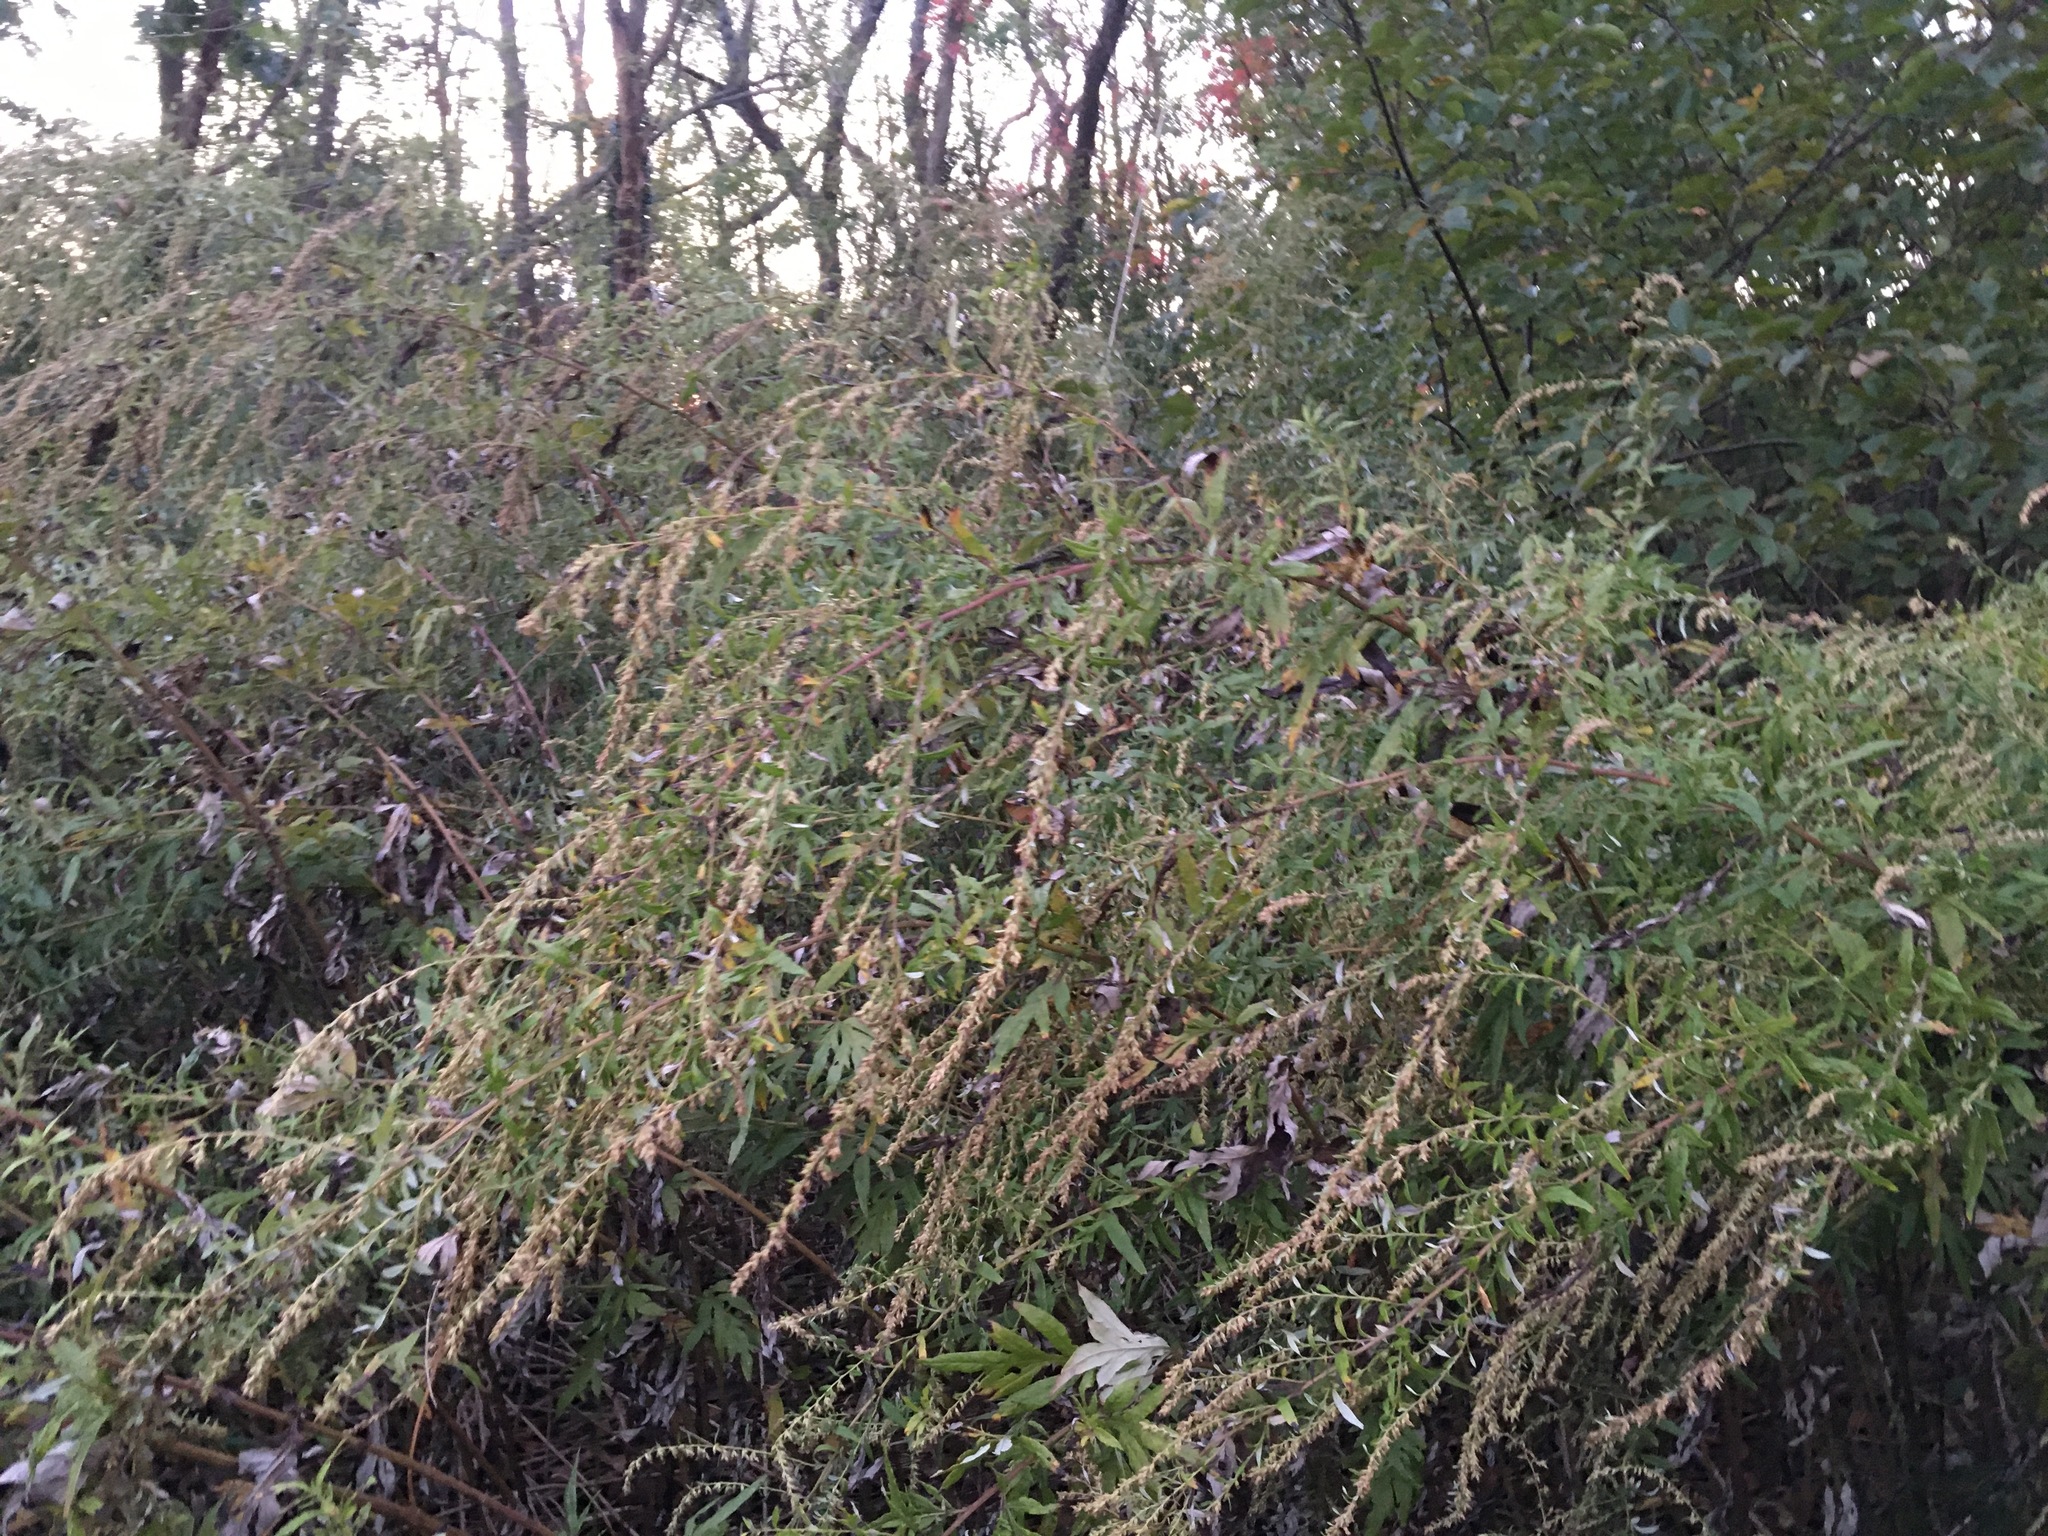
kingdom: Plantae
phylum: Tracheophyta
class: Magnoliopsida
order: Asterales
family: Asteraceae
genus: Artemisia
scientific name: Artemisia vulgaris
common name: Mugwort
